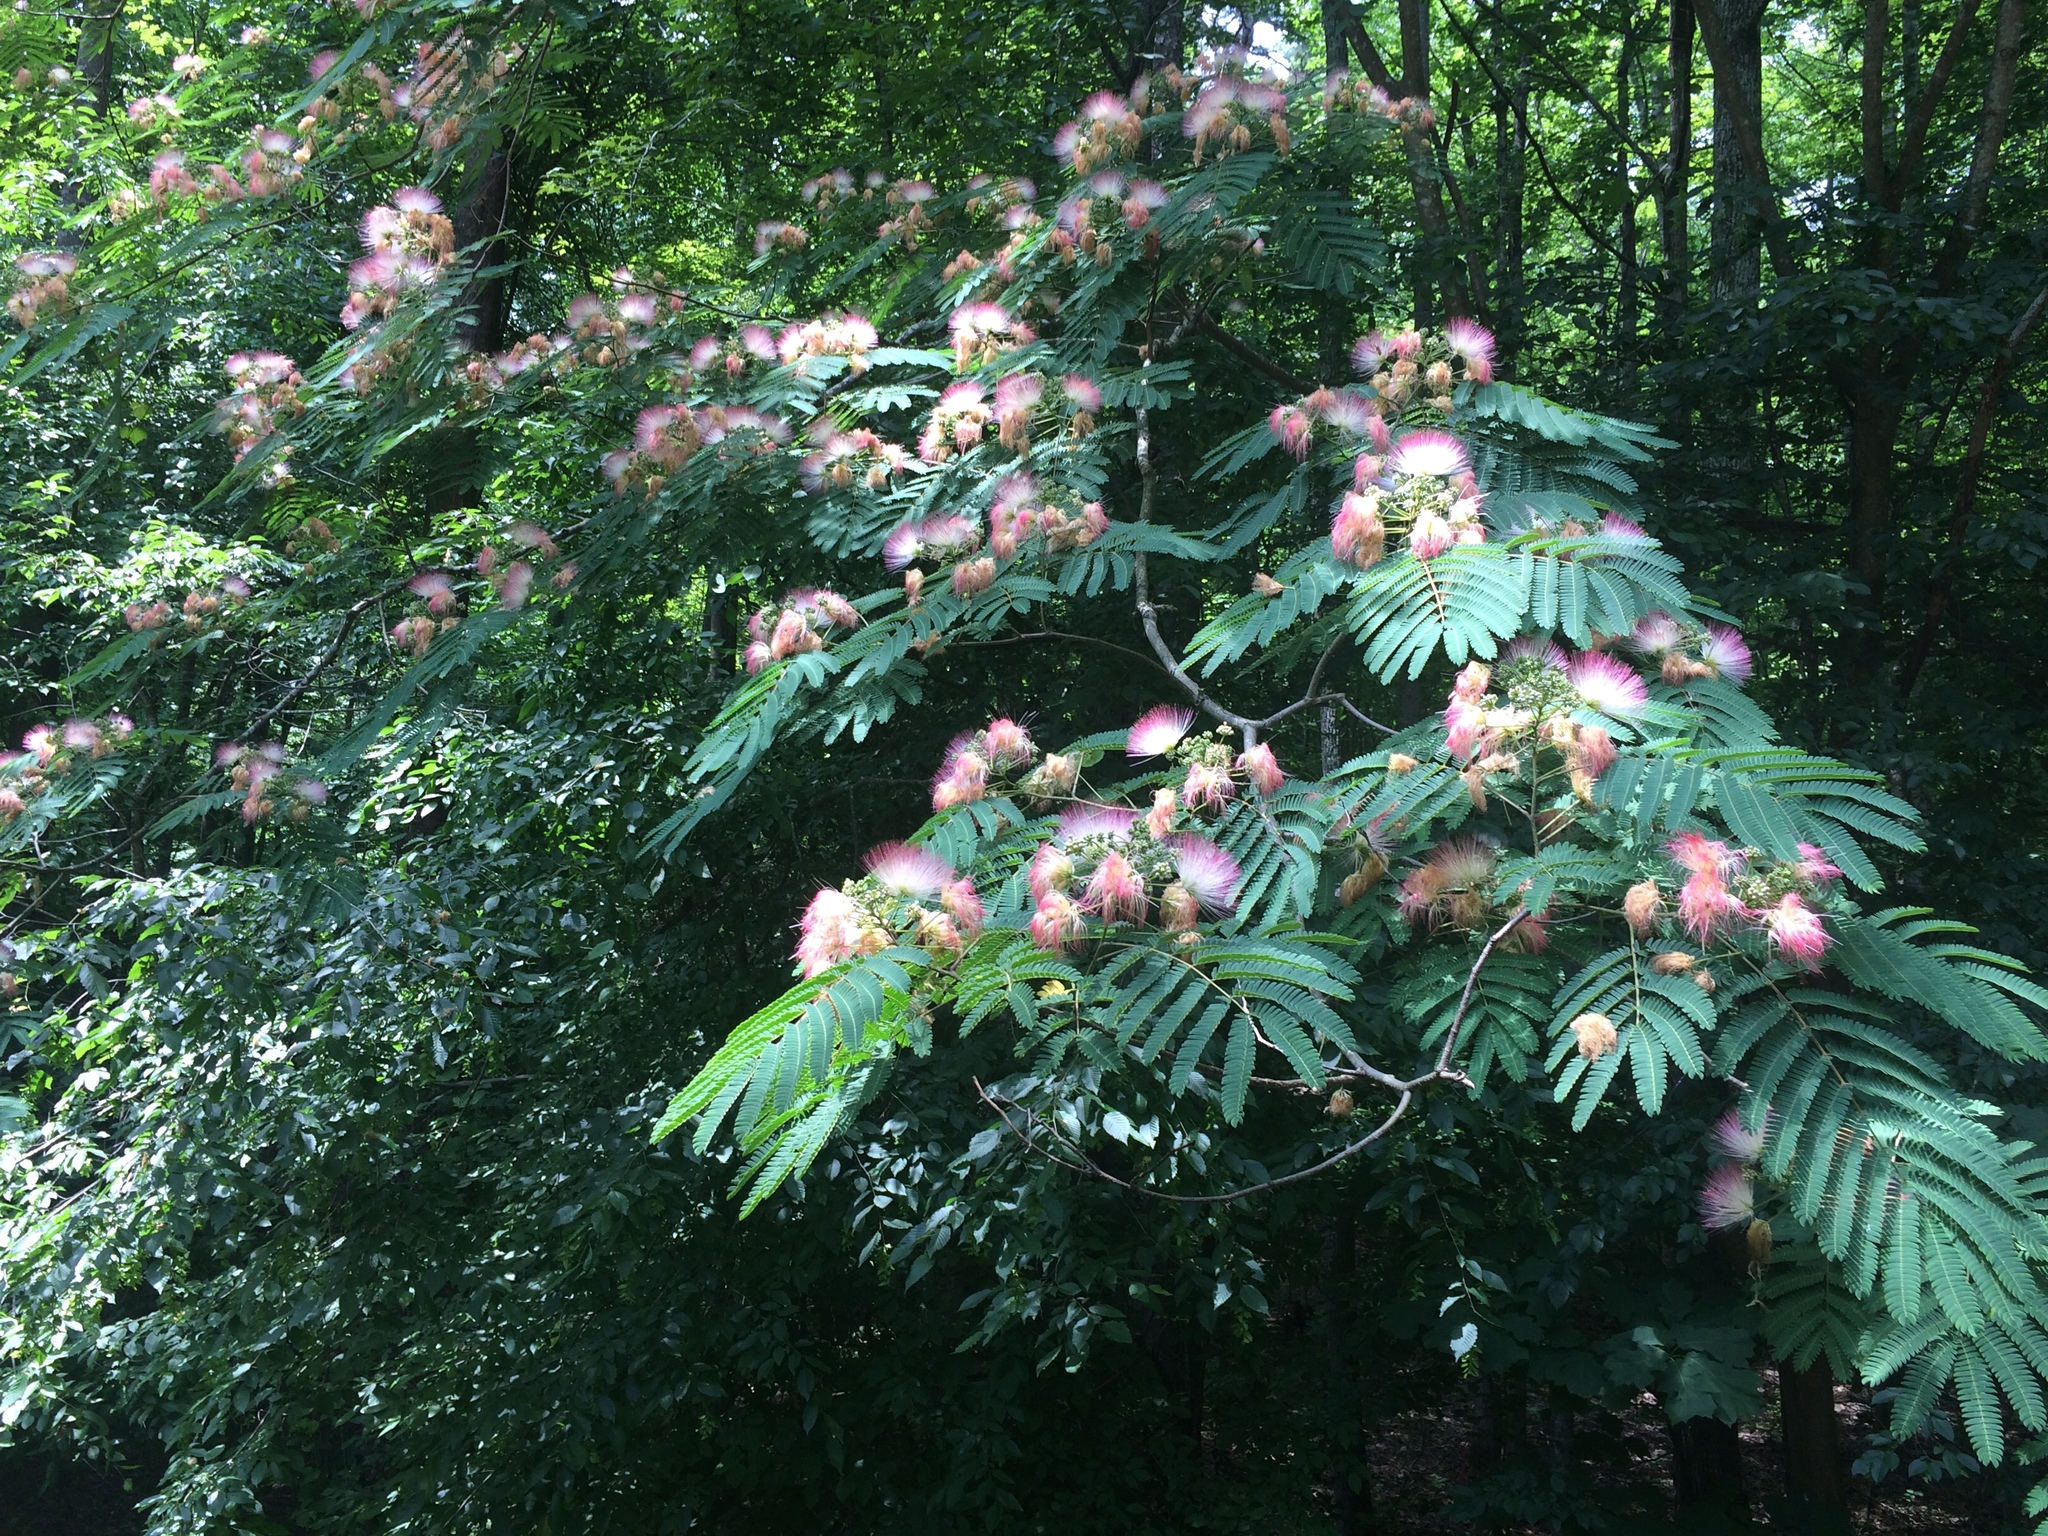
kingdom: Plantae
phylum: Tracheophyta
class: Magnoliopsida
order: Fabales
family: Fabaceae
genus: Albizia
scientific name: Albizia julibrissin
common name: Silktree
